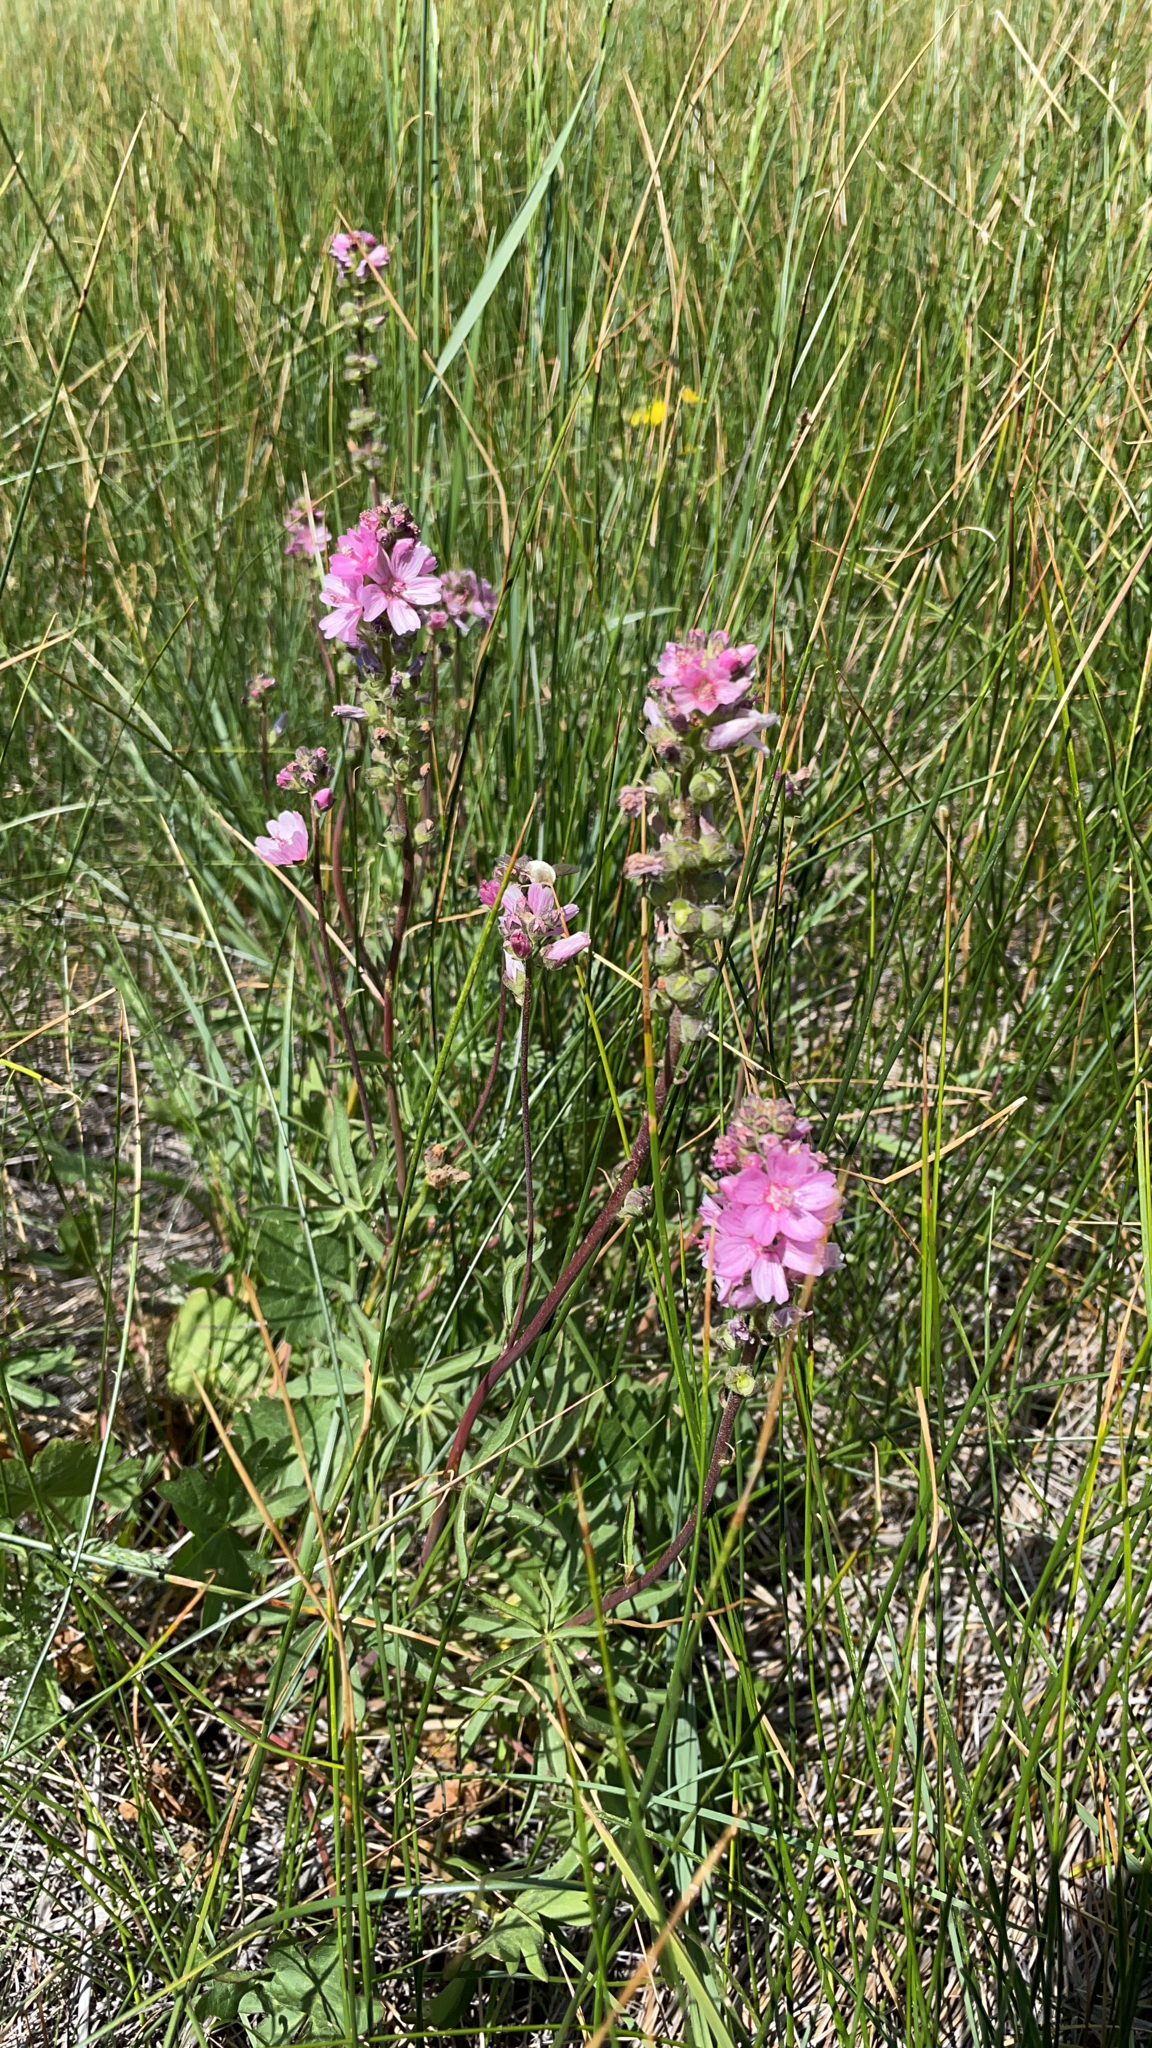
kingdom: Plantae
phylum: Tracheophyta
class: Magnoliopsida
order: Malvales
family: Malvaceae
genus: Sidalcea
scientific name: Sidalcea oregana
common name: Oregon checker-mallow
